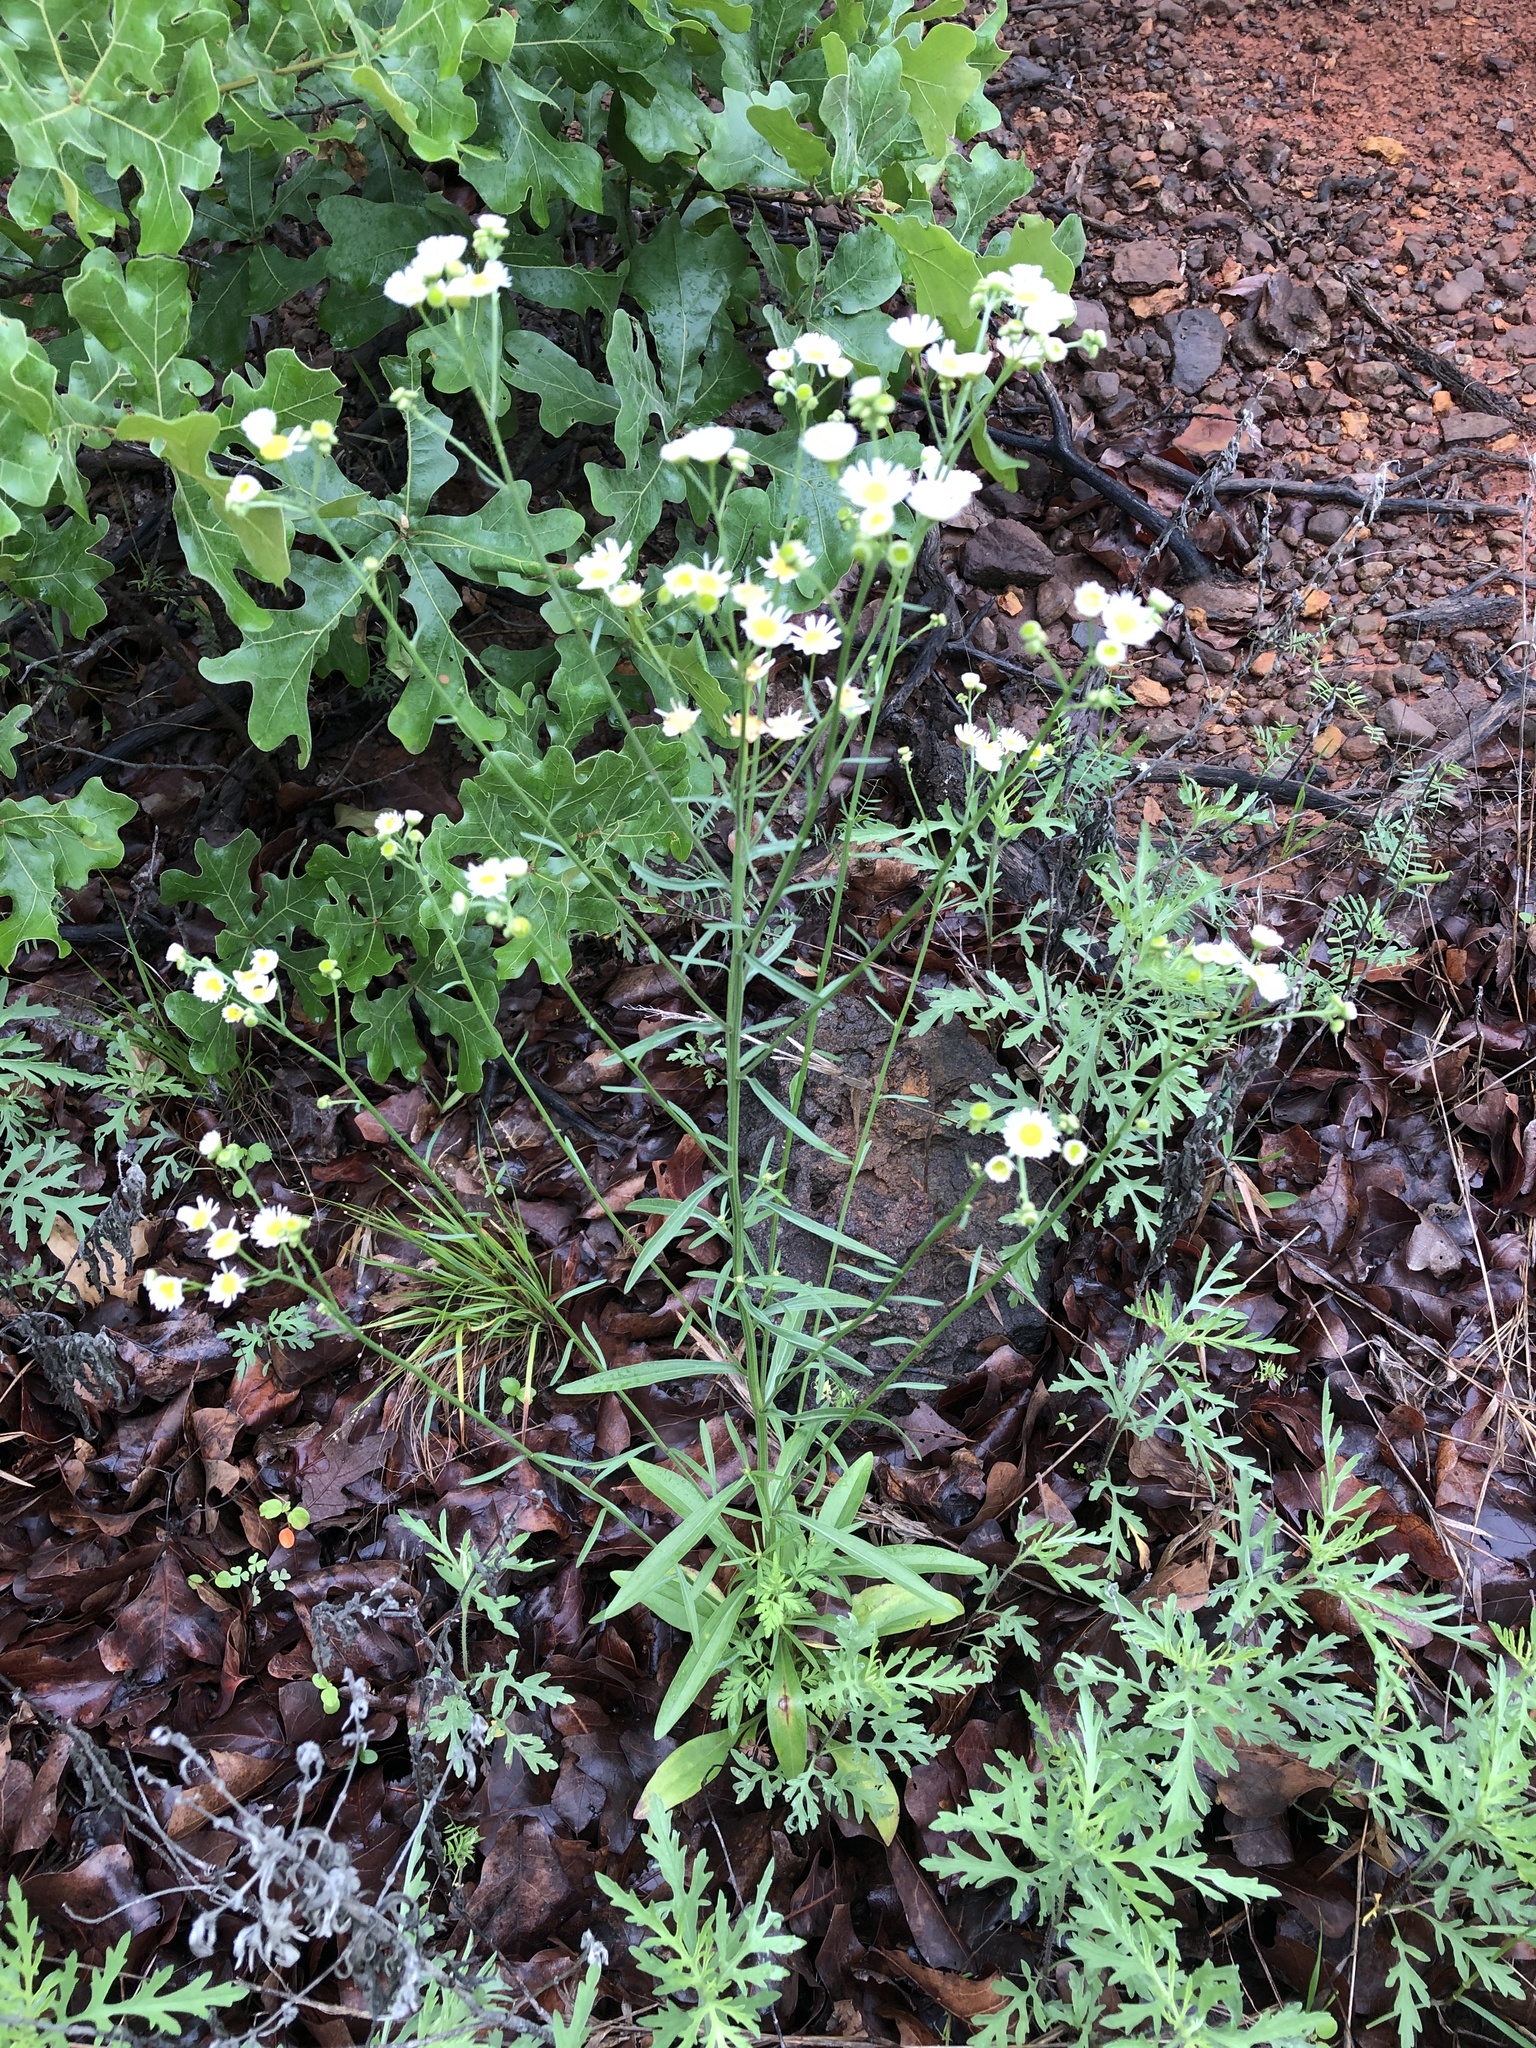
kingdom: Plantae
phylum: Tracheophyta
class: Magnoliopsida
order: Asterales
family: Asteraceae
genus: Erigeron
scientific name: Erigeron strigosus
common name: Common eastern fleabane
